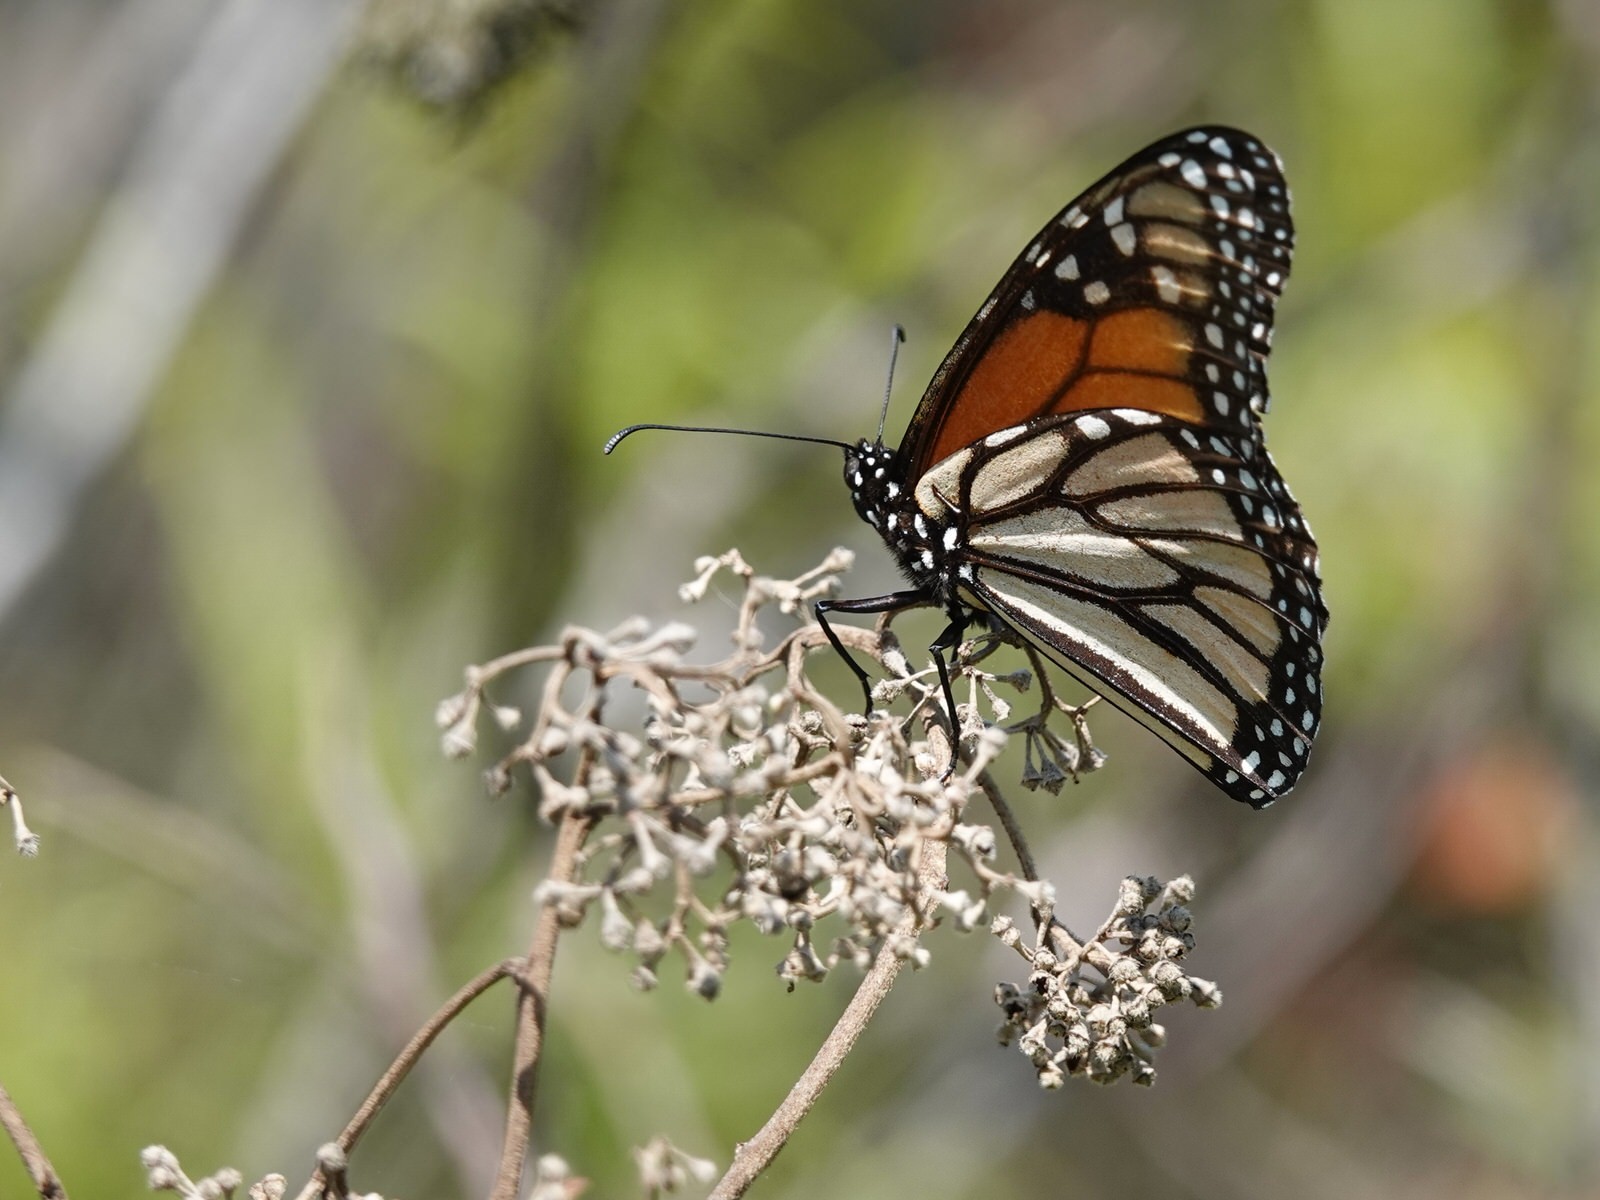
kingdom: Animalia
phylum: Arthropoda
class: Insecta
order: Lepidoptera
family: Nymphalidae
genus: Danaus
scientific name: Danaus plexippus
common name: Monarch
